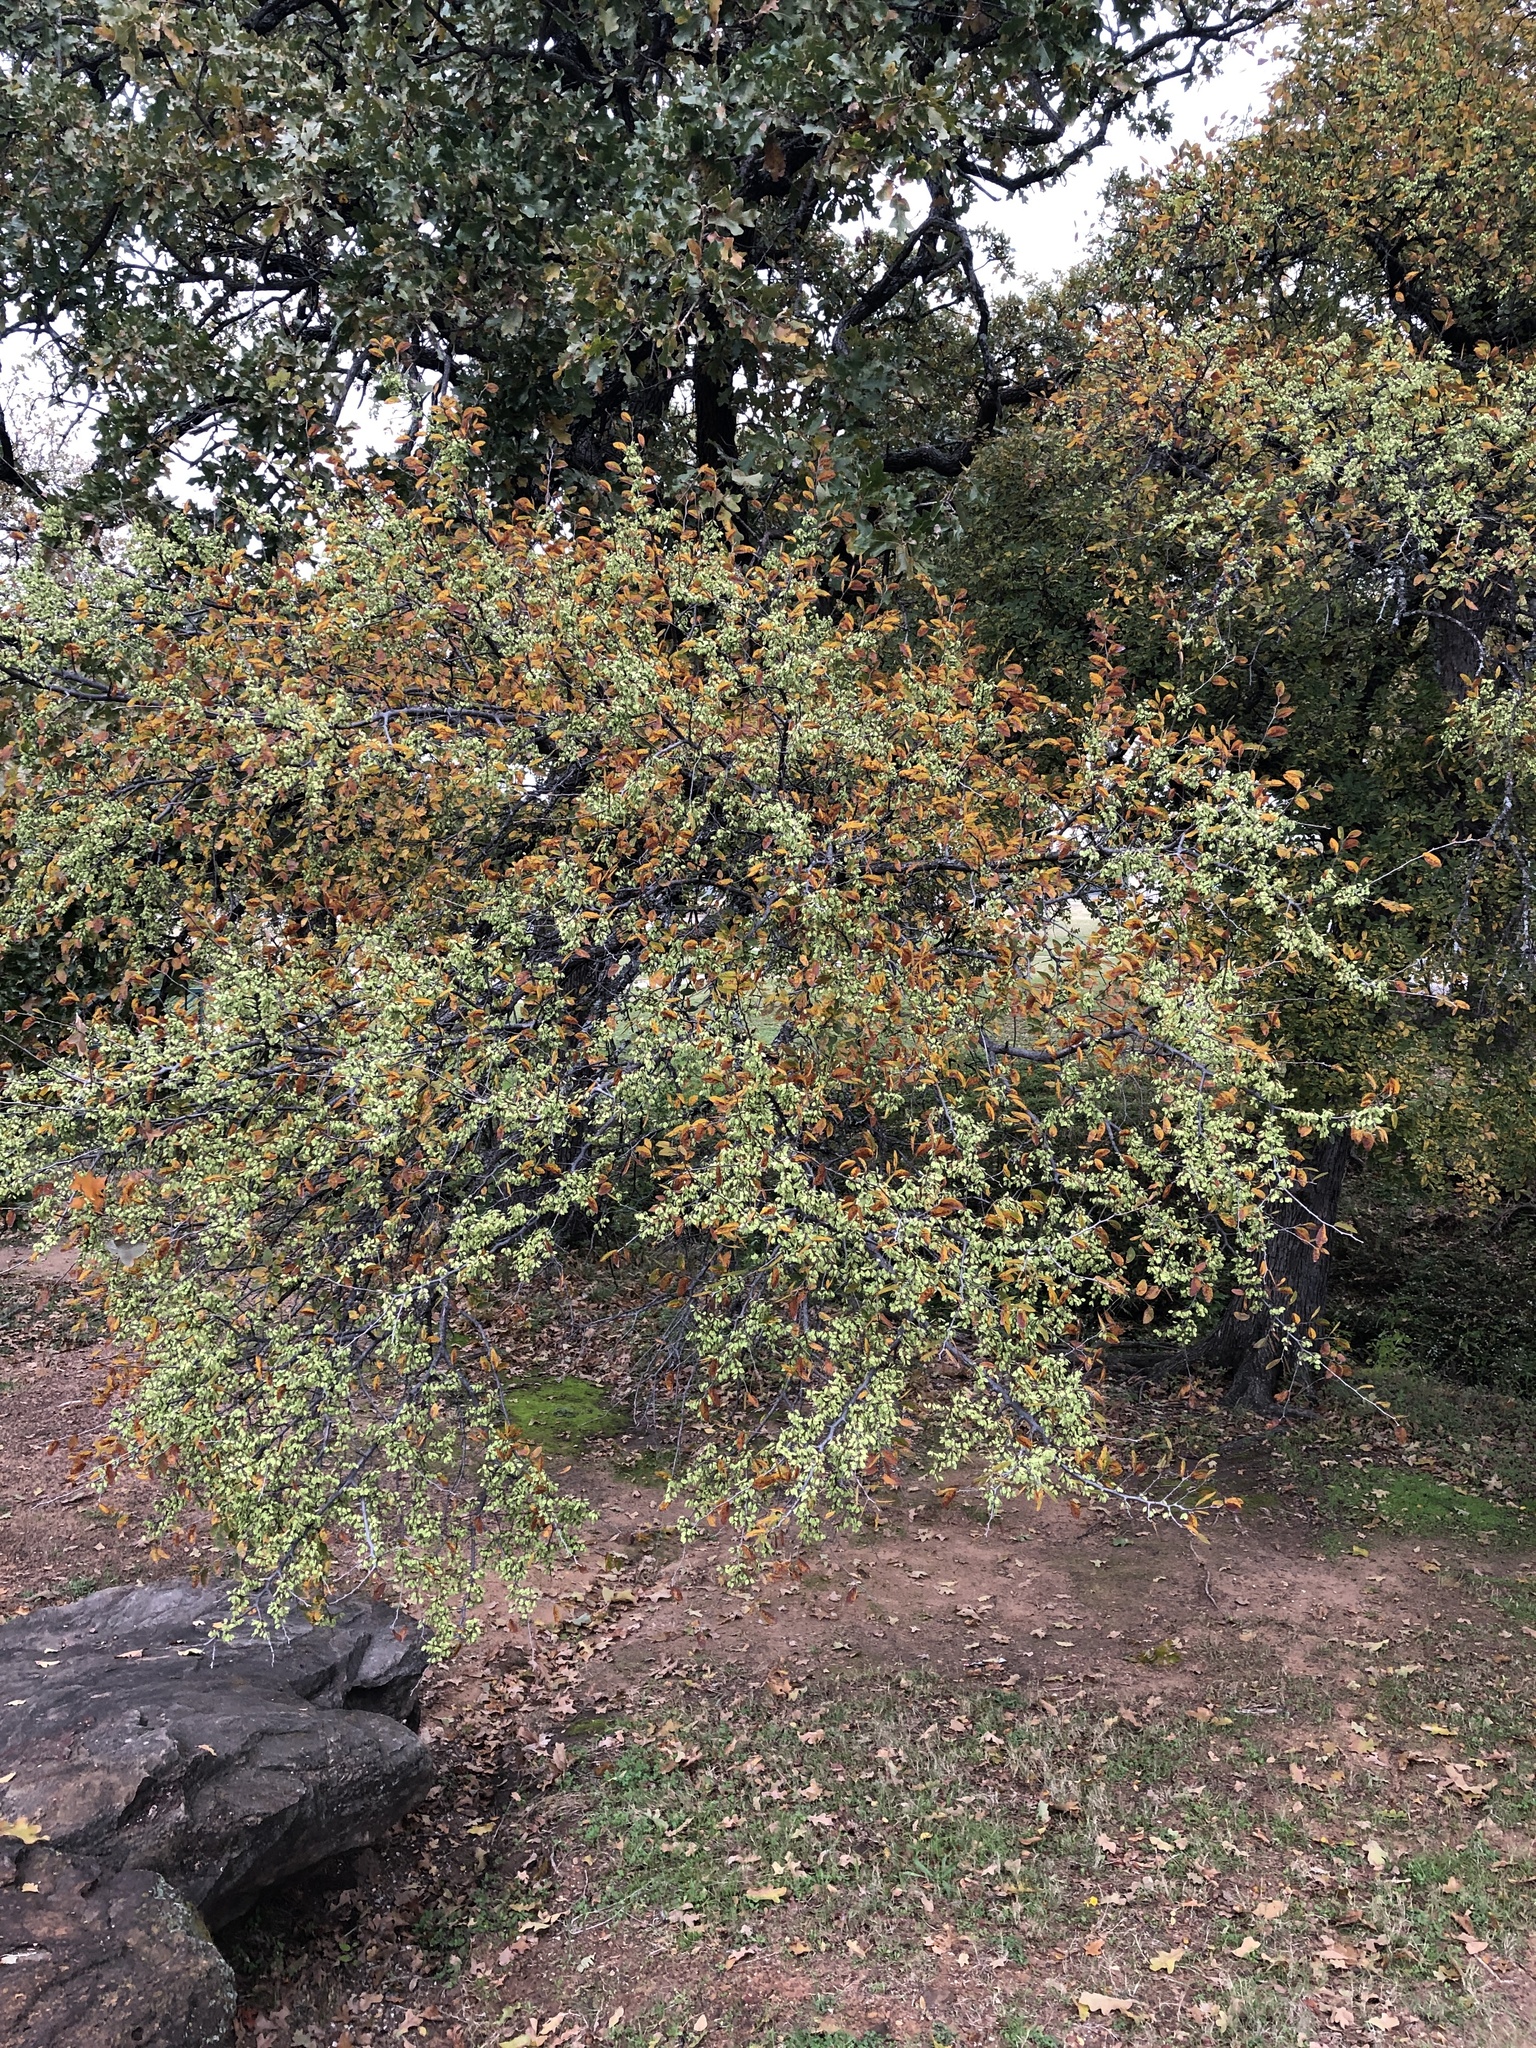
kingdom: Plantae
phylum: Tracheophyta
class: Magnoliopsida
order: Rosales
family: Ulmaceae
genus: Ulmus
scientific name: Ulmus crassifolia
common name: Basket elm
